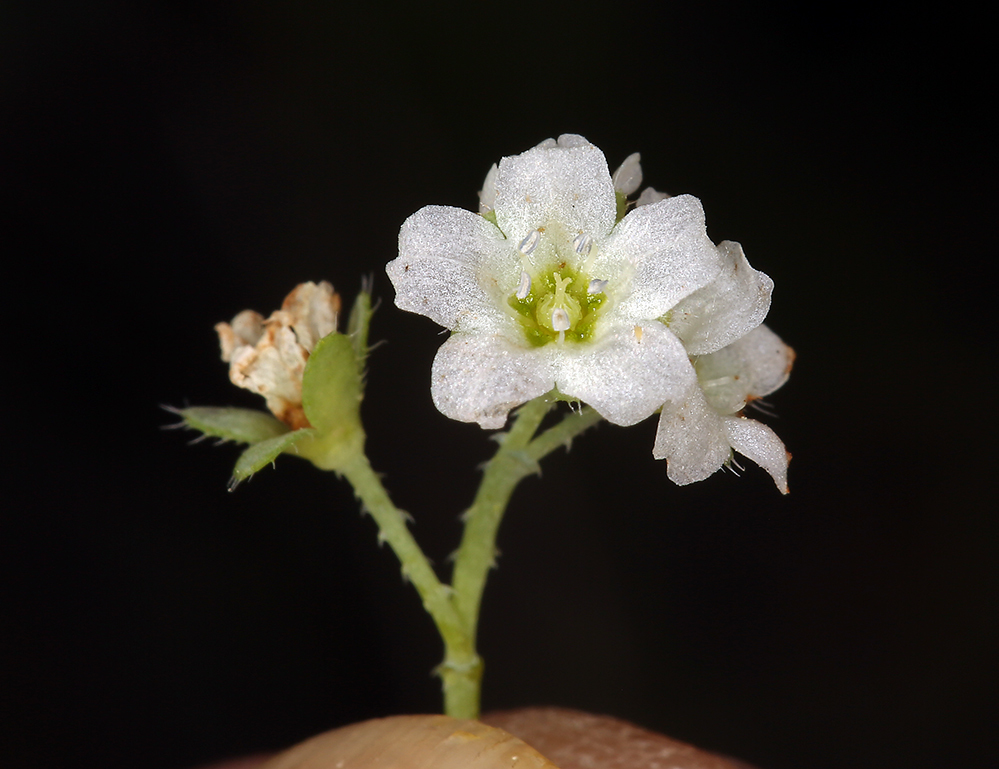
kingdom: Plantae
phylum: Tracheophyta
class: Magnoliopsida
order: Boraginales
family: Hydrophyllaceae
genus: Pholistoma
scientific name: Pholistoma membranaceum
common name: White fiesta-flower
